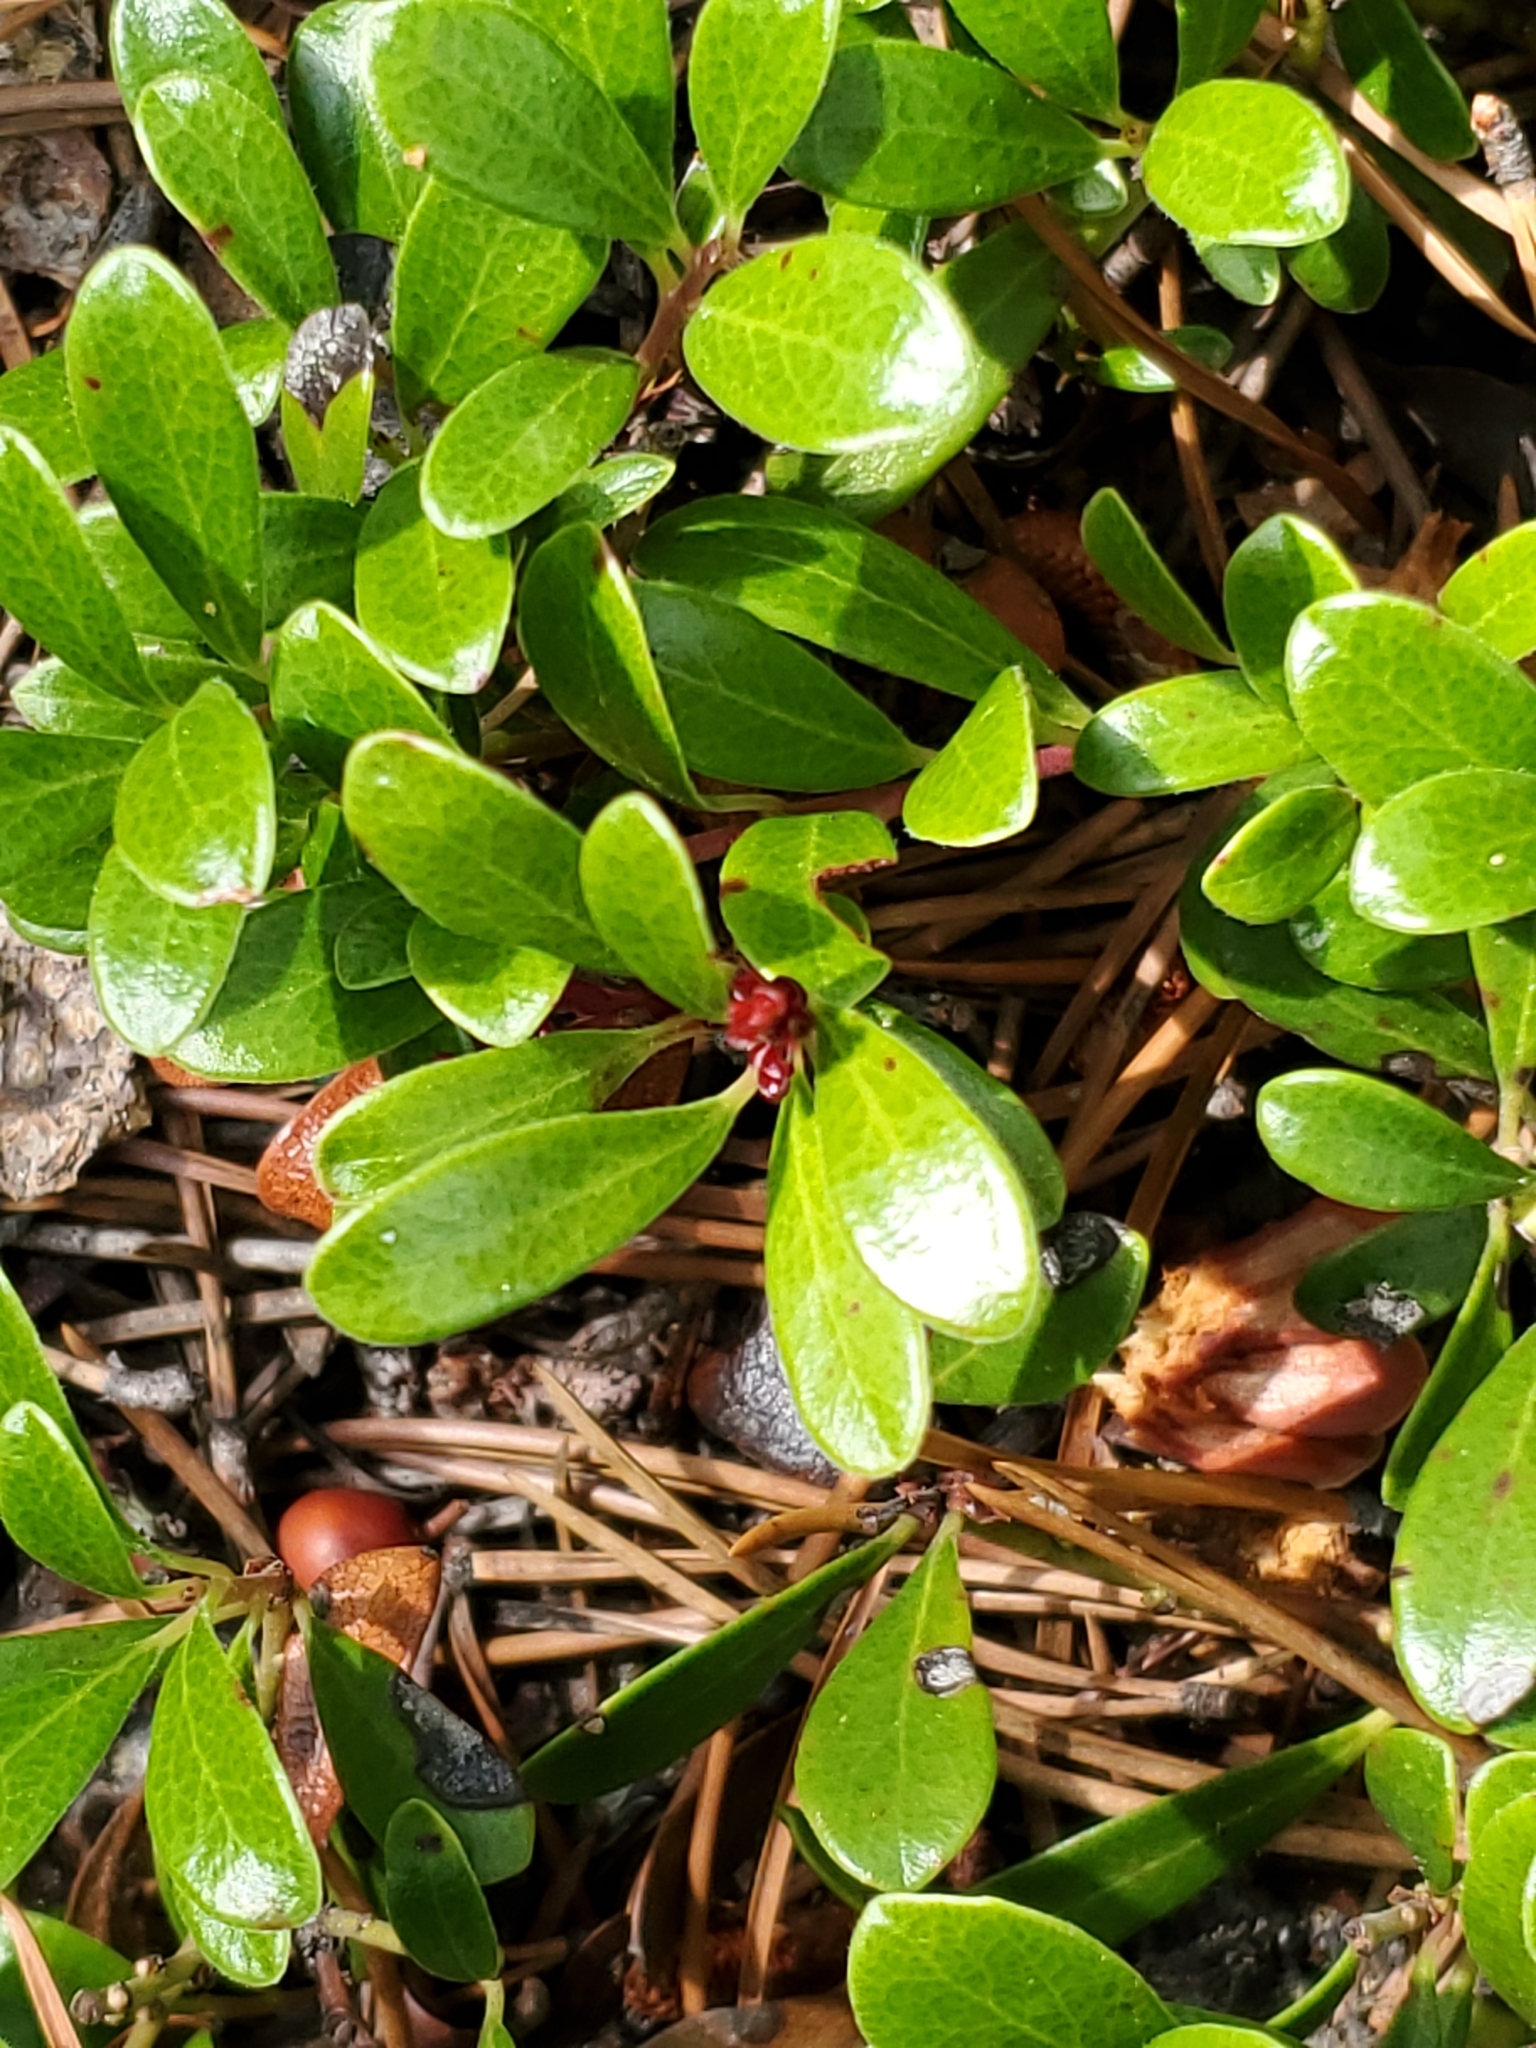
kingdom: Plantae
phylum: Tracheophyta
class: Magnoliopsida
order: Ericales
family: Ericaceae
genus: Arctostaphylos
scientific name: Arctostaphylos uva-ursi
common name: Bearberry
